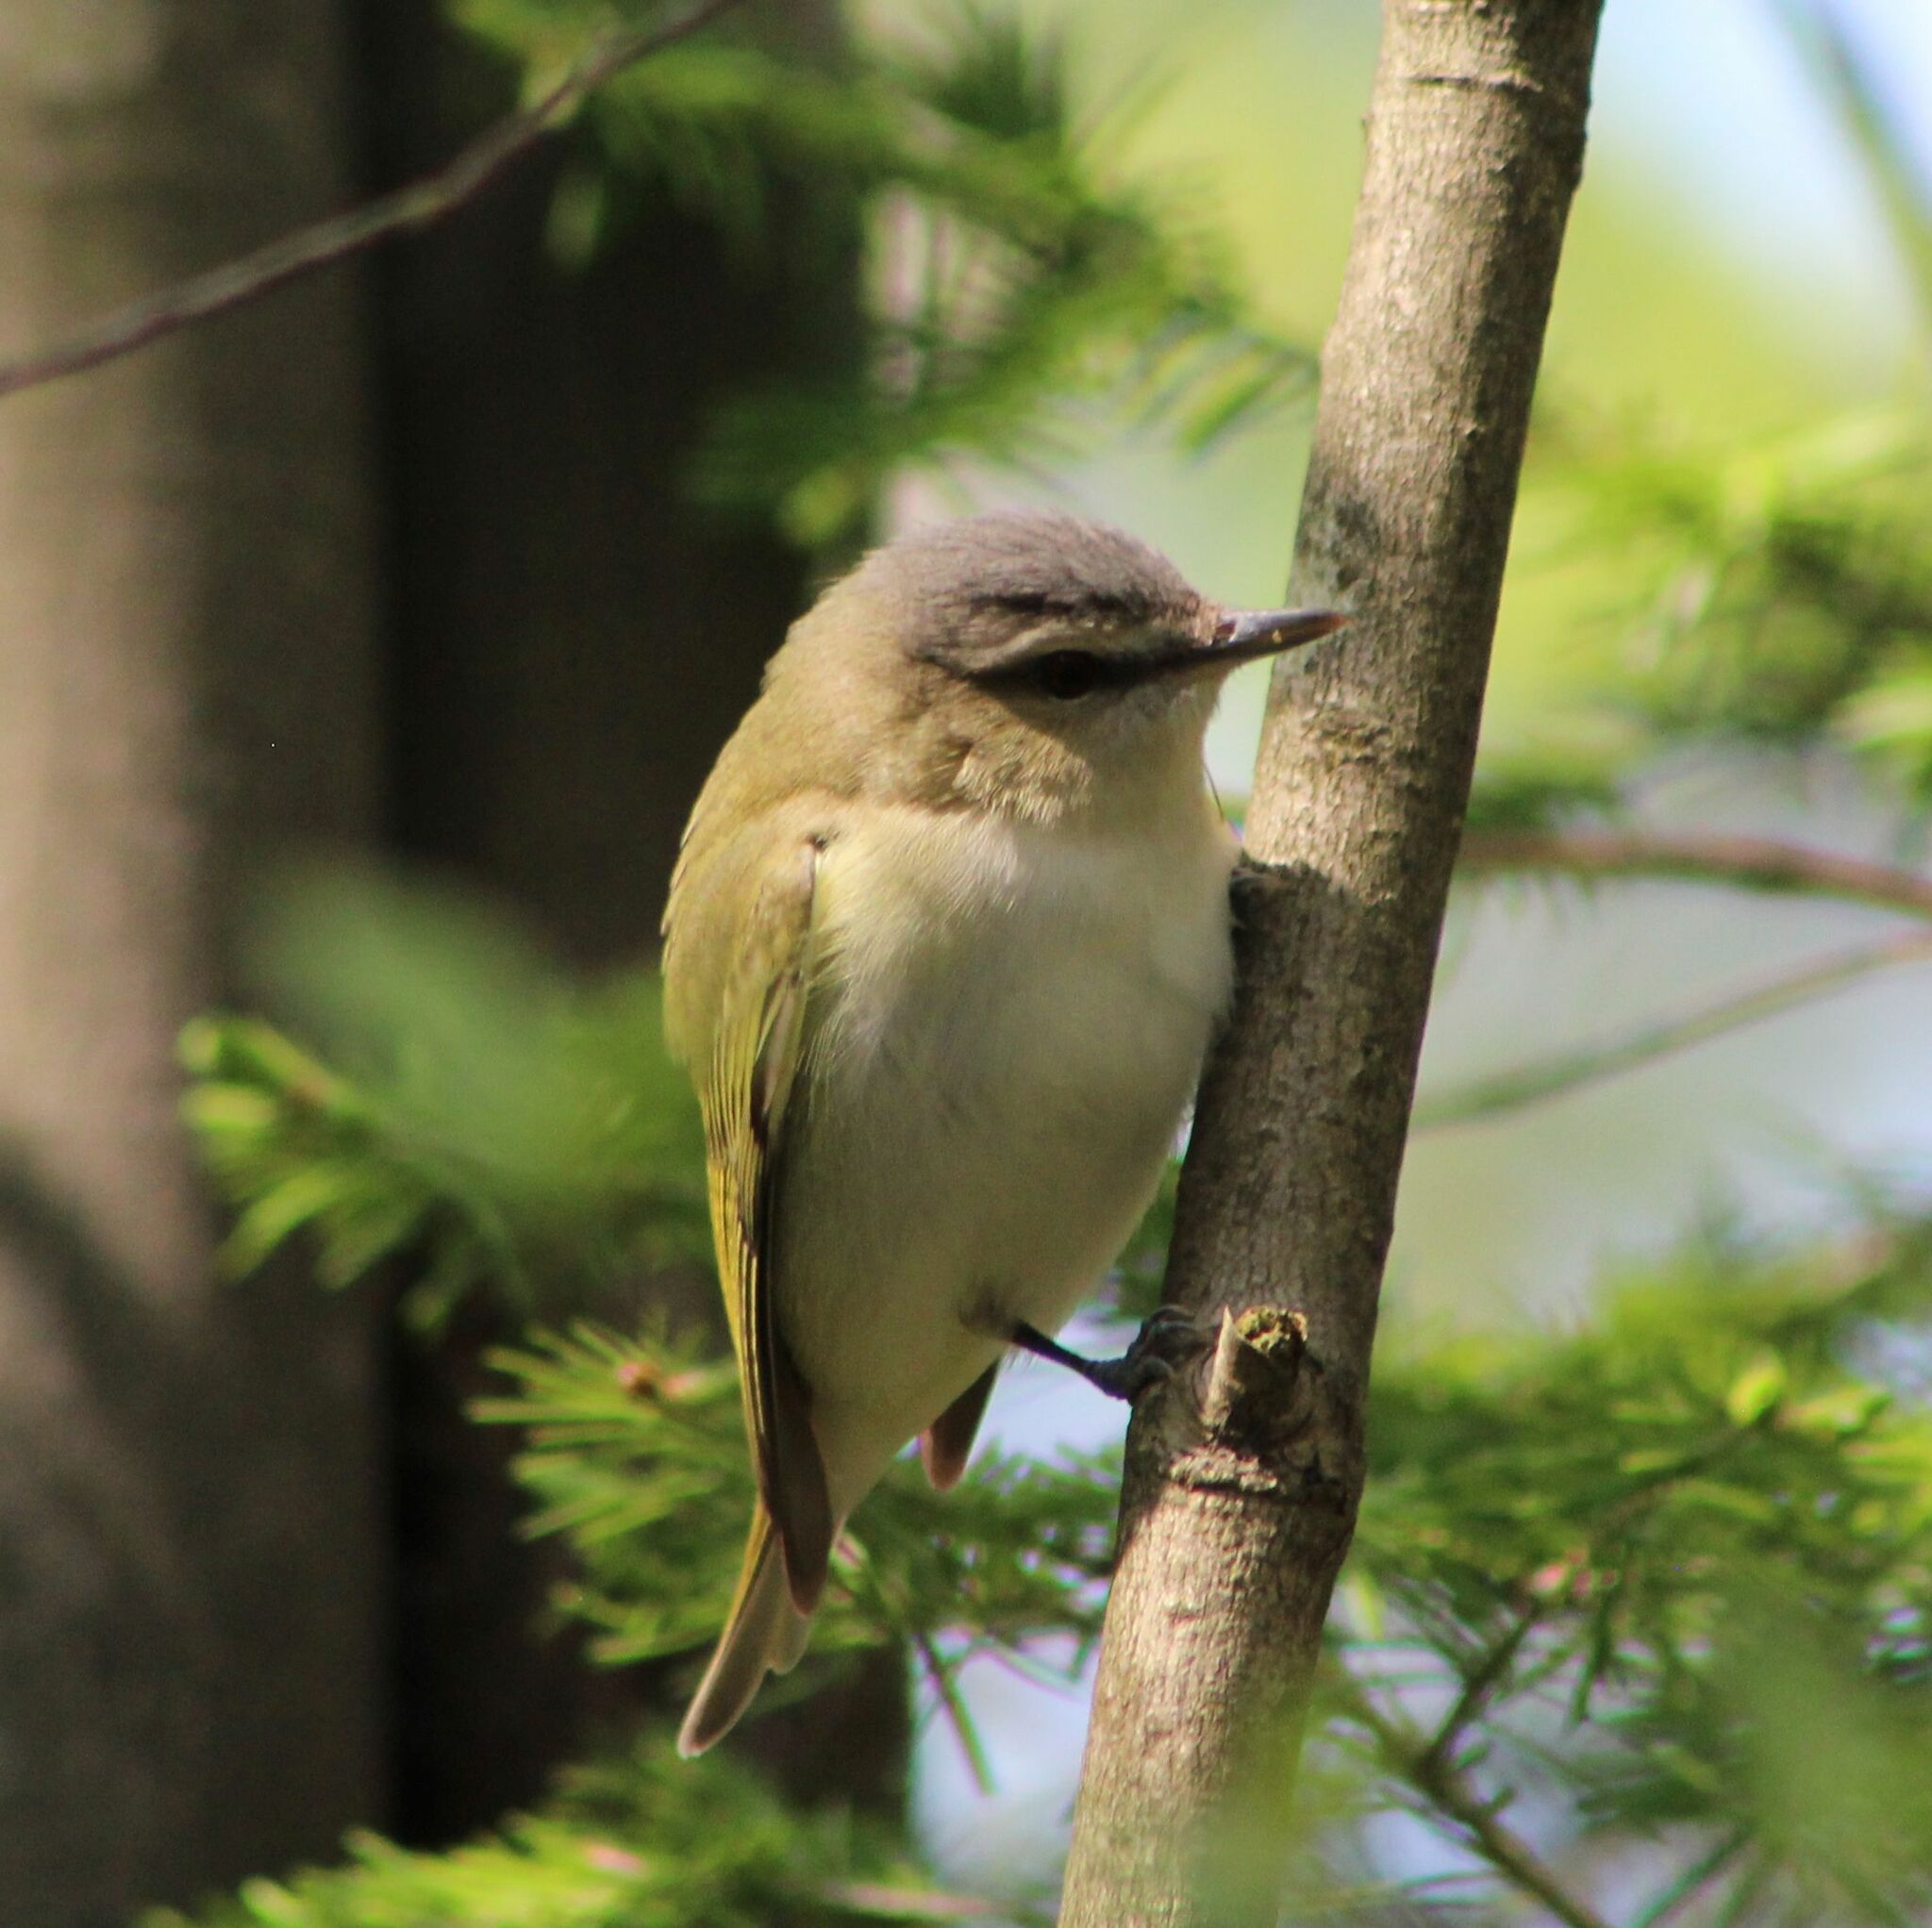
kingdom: Animalia
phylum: Chordata
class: Aves
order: Passeriformes
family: Vireonidae
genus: Vireo
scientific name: Vireo olivaceus
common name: Red-eyed vireo
